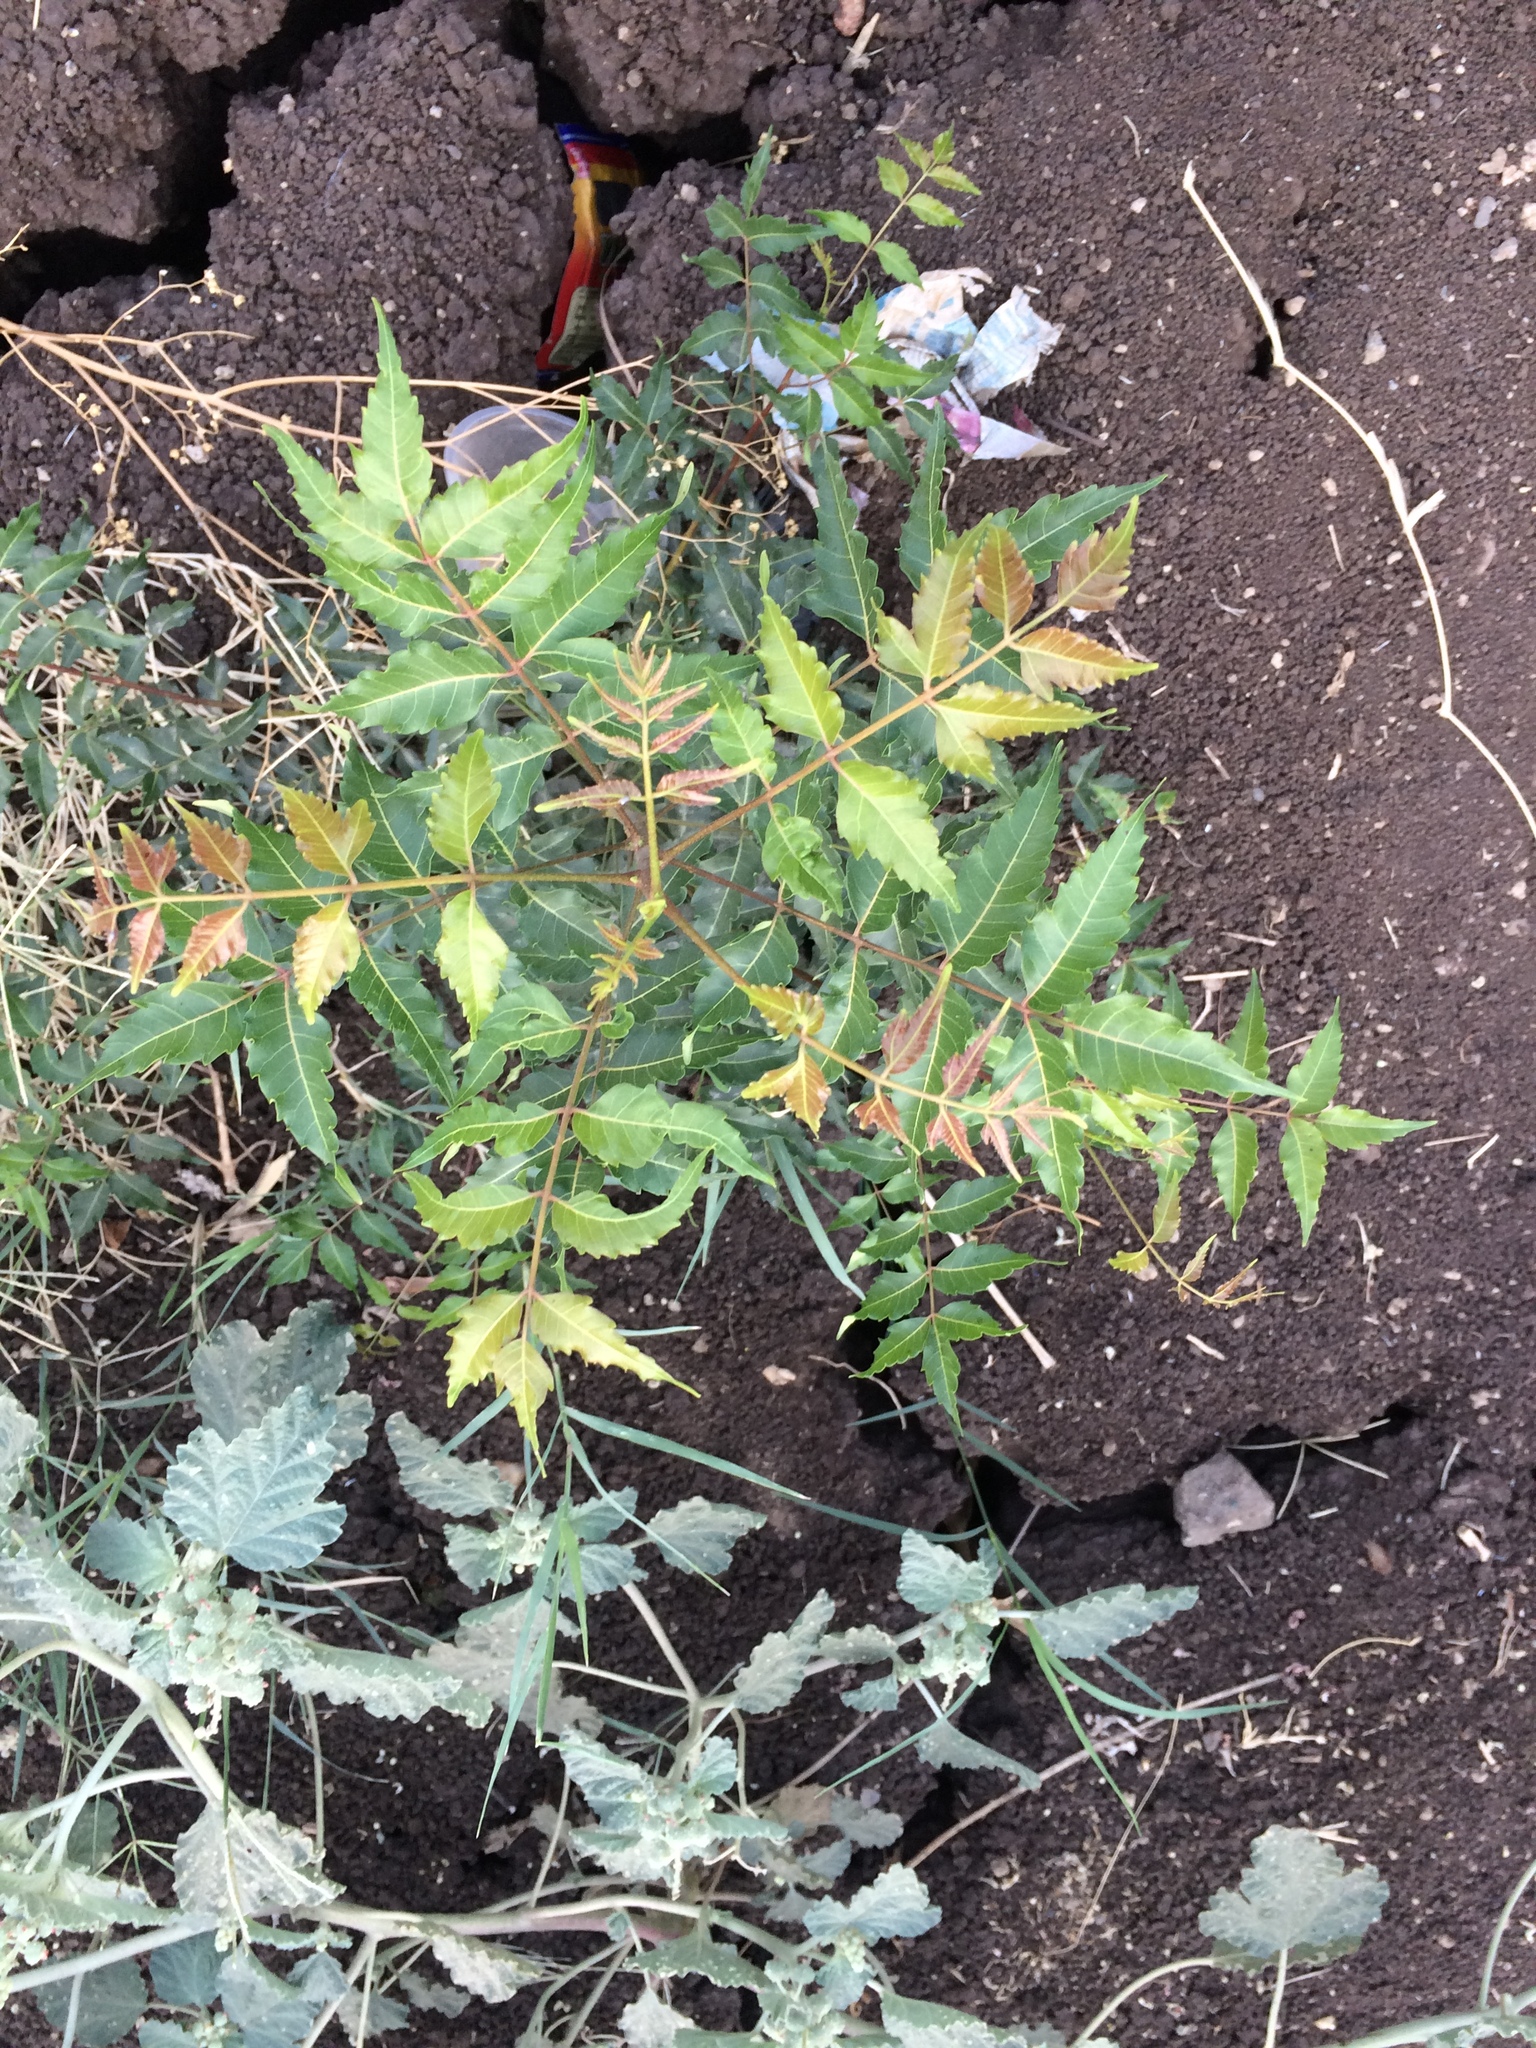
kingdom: Plantae
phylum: Tracheophyta
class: Magnoliopsida
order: Sapindales
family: Meliaceae
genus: Azadirachta
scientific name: Azadirachta indica
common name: Neem
